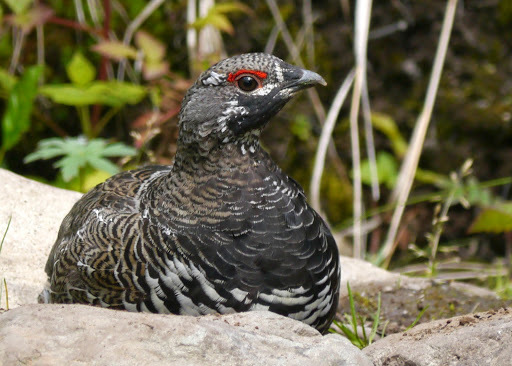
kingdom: Animalia
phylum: Chordata
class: Aves
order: Galliformes
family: Phasianidae
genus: Canachites
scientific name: Canachites canadensis
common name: Spruce grouse
